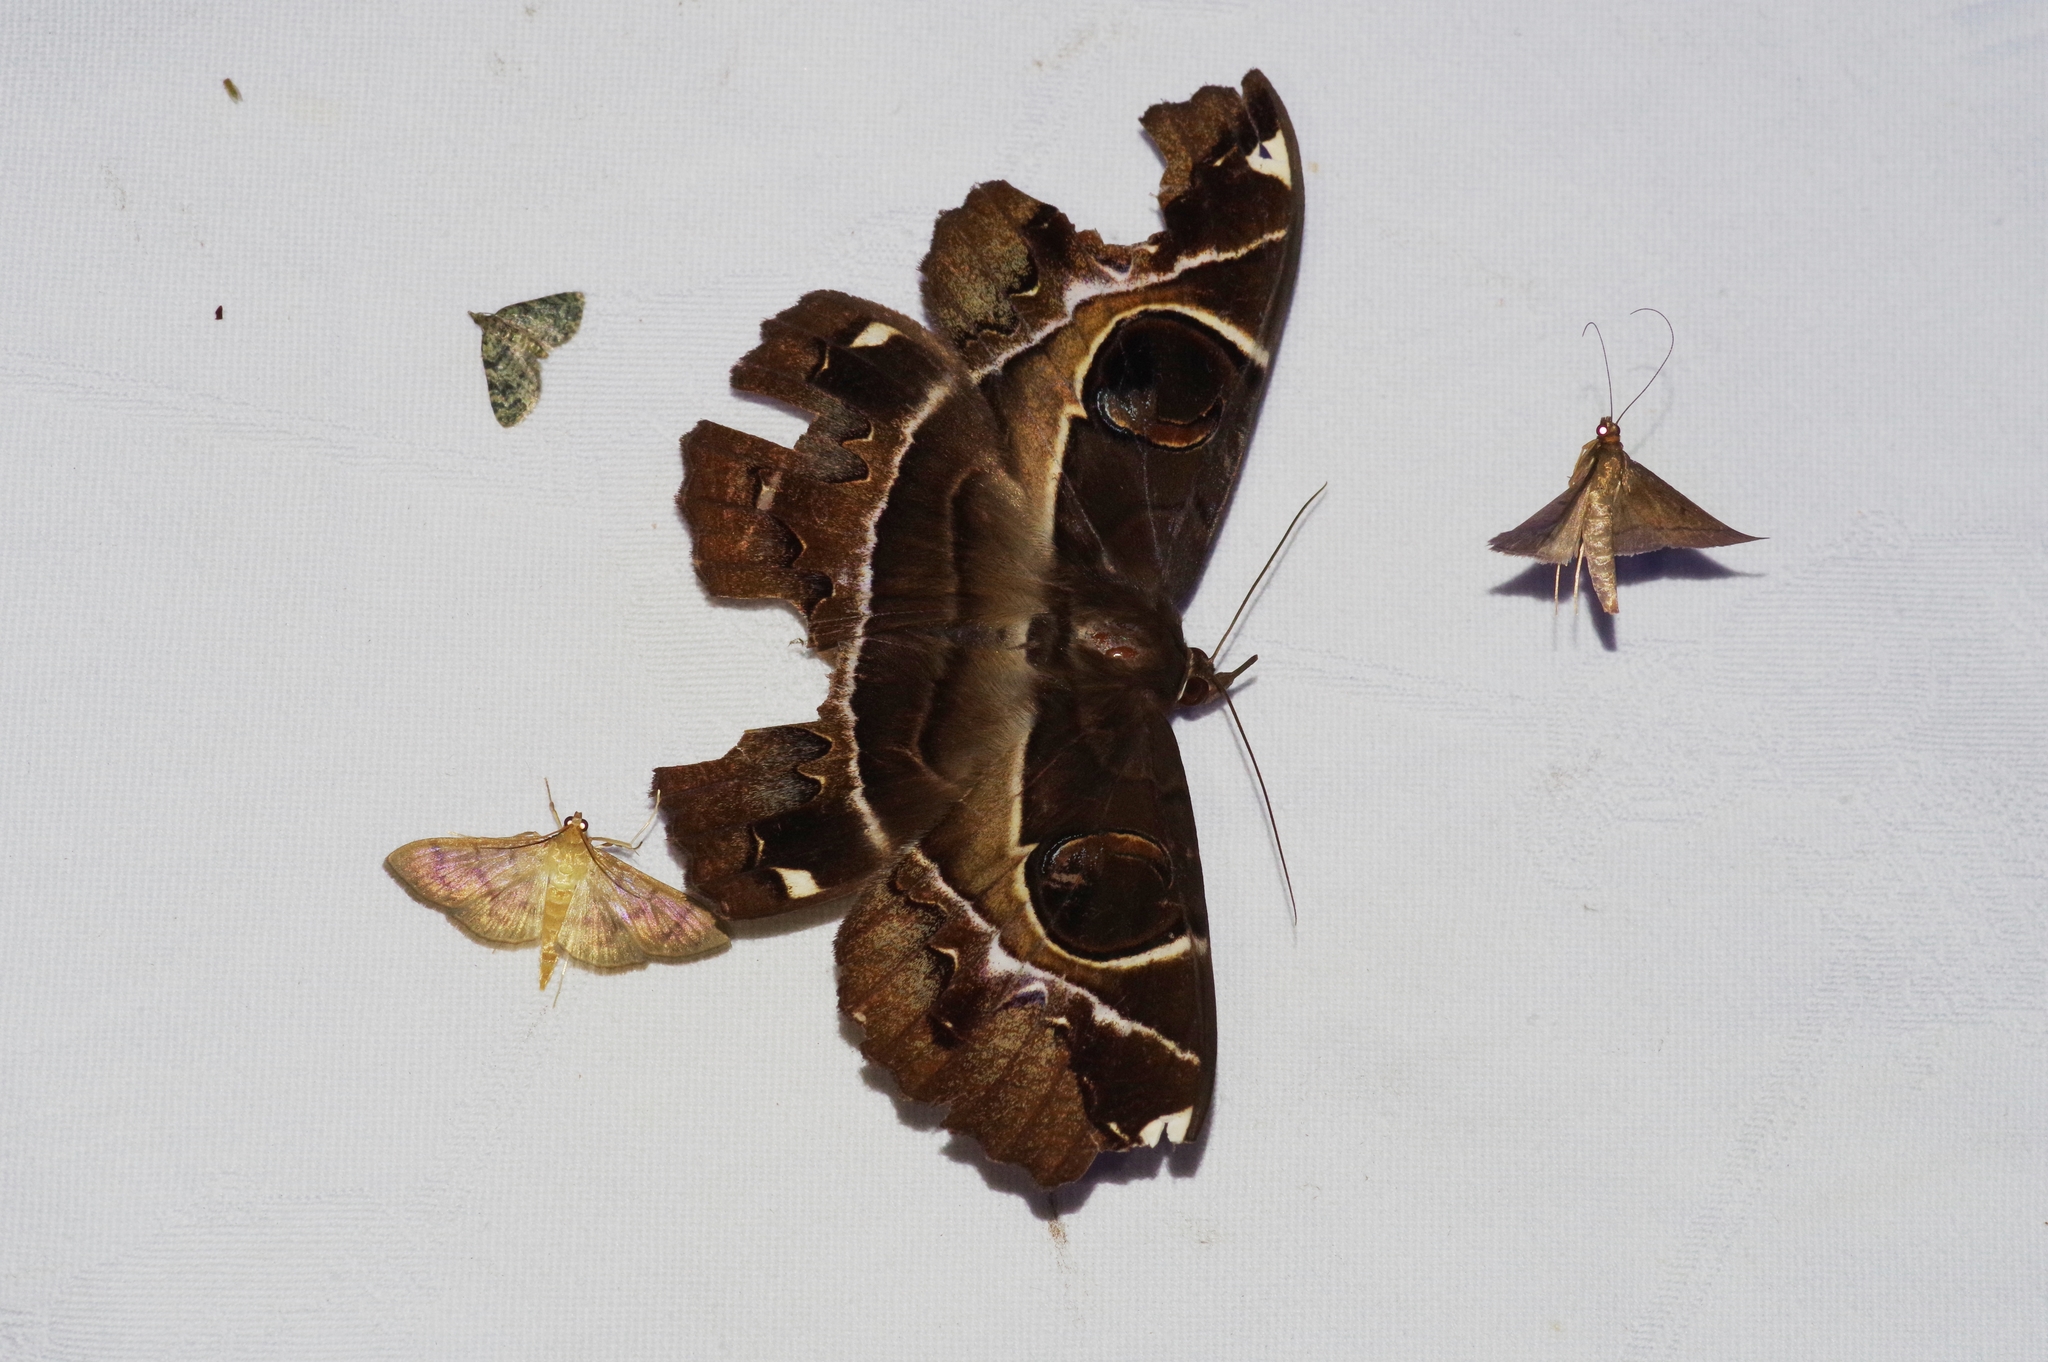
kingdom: Animalia
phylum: Arthropoda
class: Insecta
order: Lepidoptera
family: Erebidae
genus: Erebus
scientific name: Erebus ephesperis
